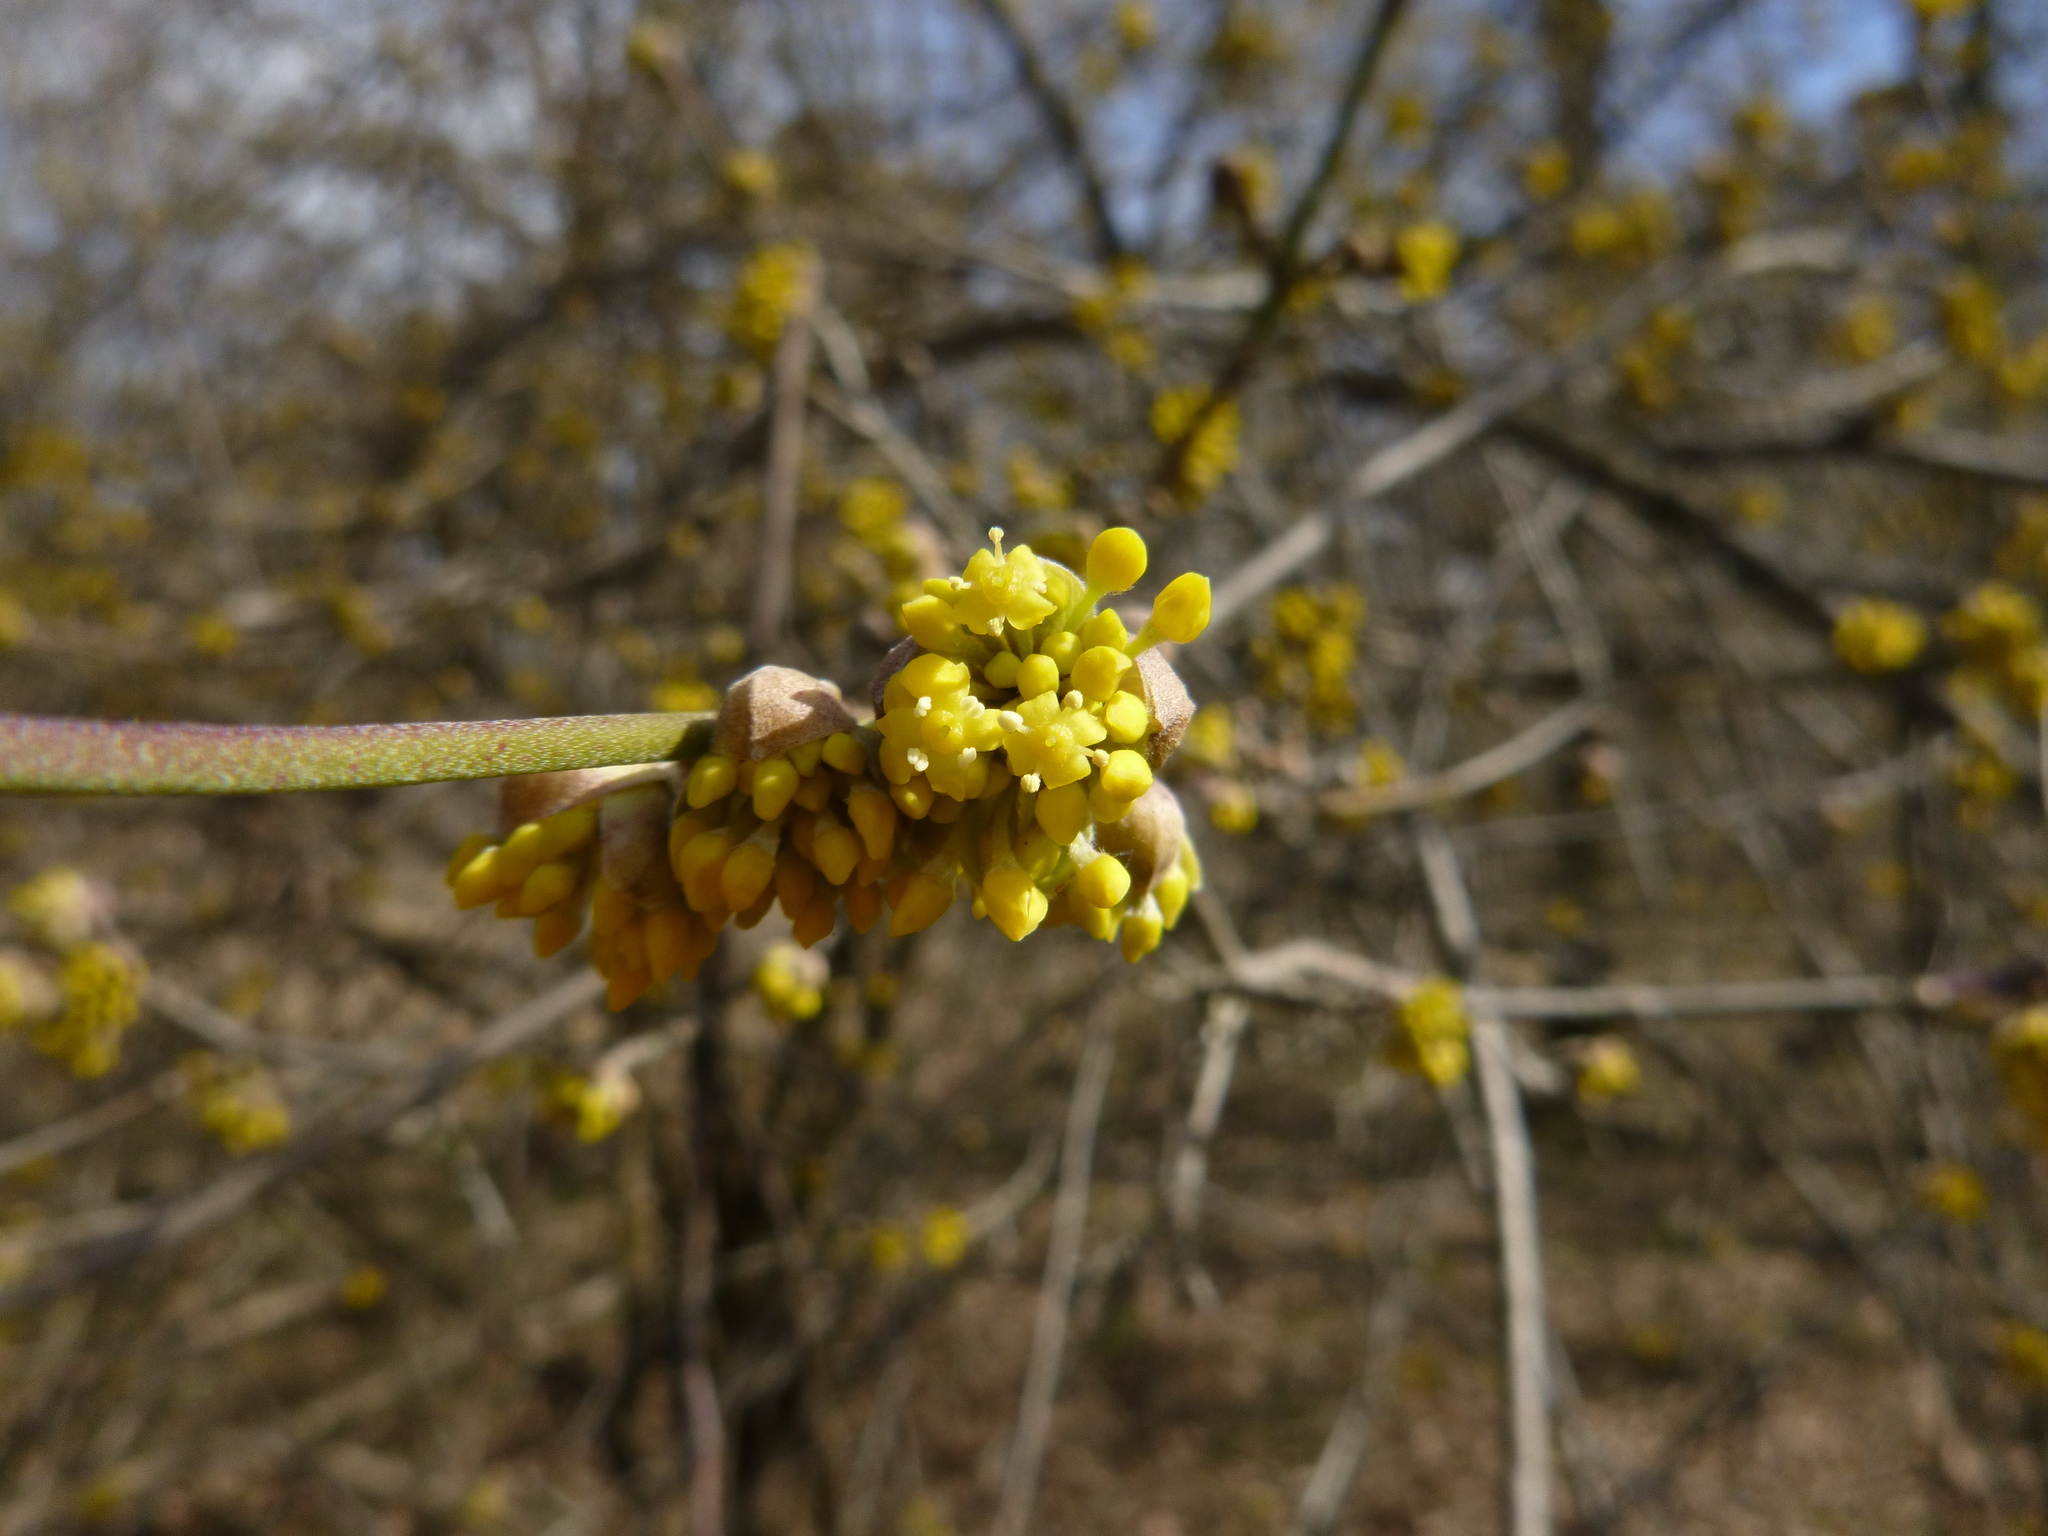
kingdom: Plantae
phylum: Tracheophyta
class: Magnoliopsida
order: Cornales
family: Cornaceae
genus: Cornus
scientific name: Cornus mas
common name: Cornelian-cherry
